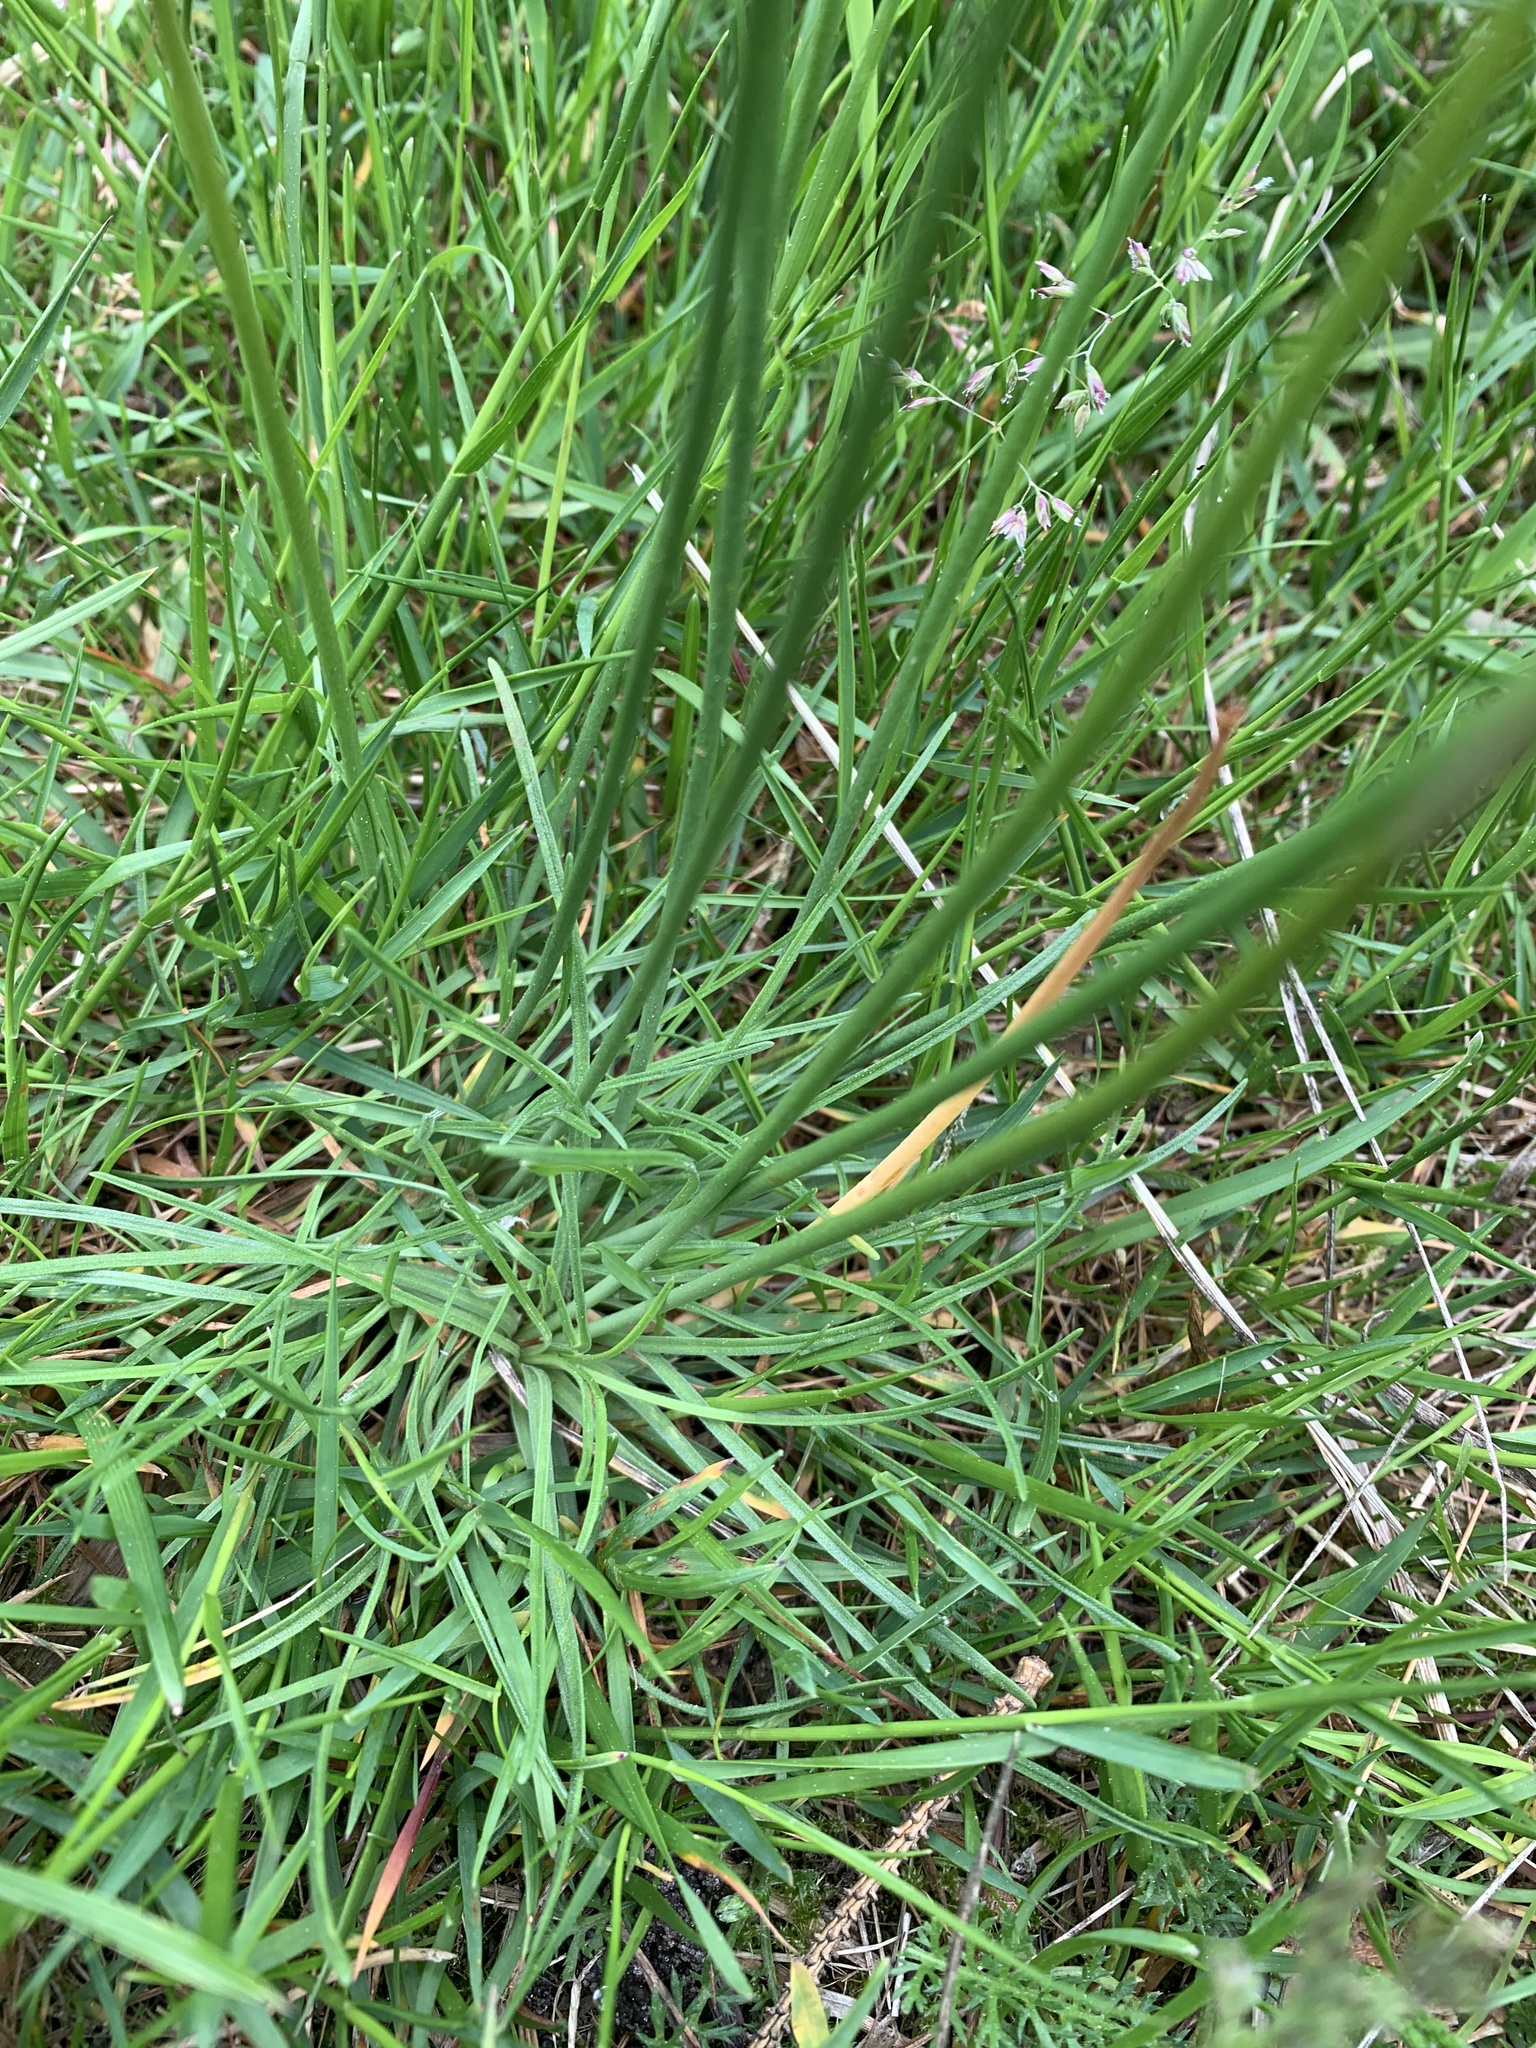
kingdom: Plantae
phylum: Tracheophyta
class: Magnoliopsida
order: Caryophyllales
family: Plumbaginaceae
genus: Armeria
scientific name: Armeria maritima
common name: Thrift
